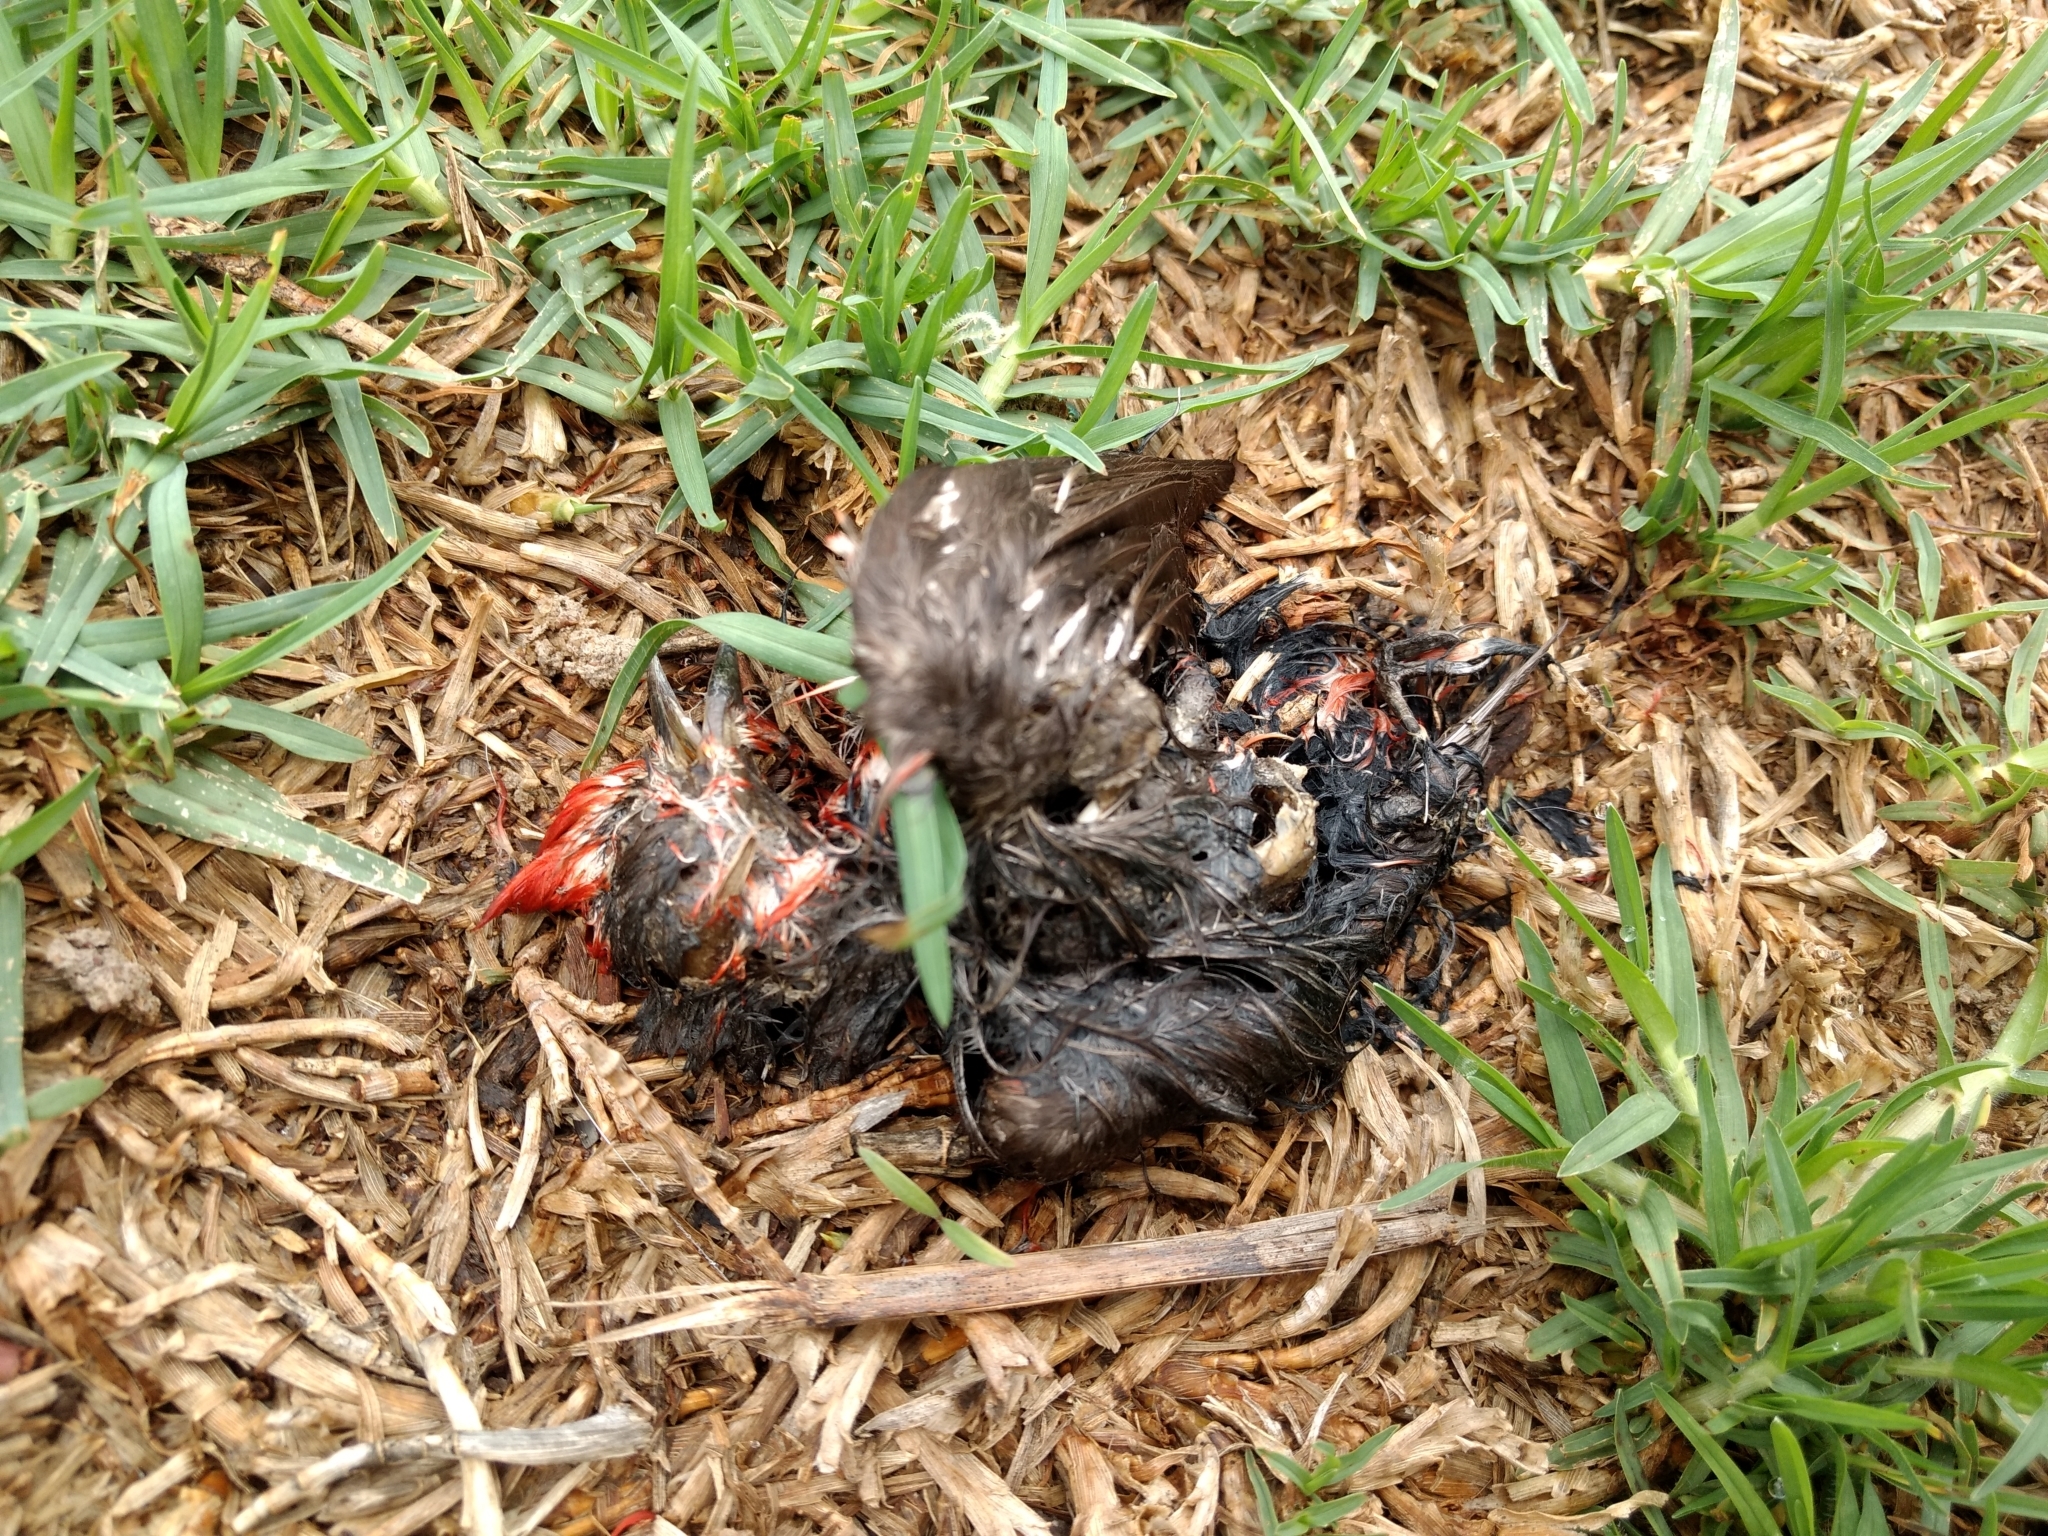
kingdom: Animalia
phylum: Chordata
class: Aves
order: Passeriformes
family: Fringillidae
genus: Haemorhous
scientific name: Haemorhous mexicanus
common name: House finch
